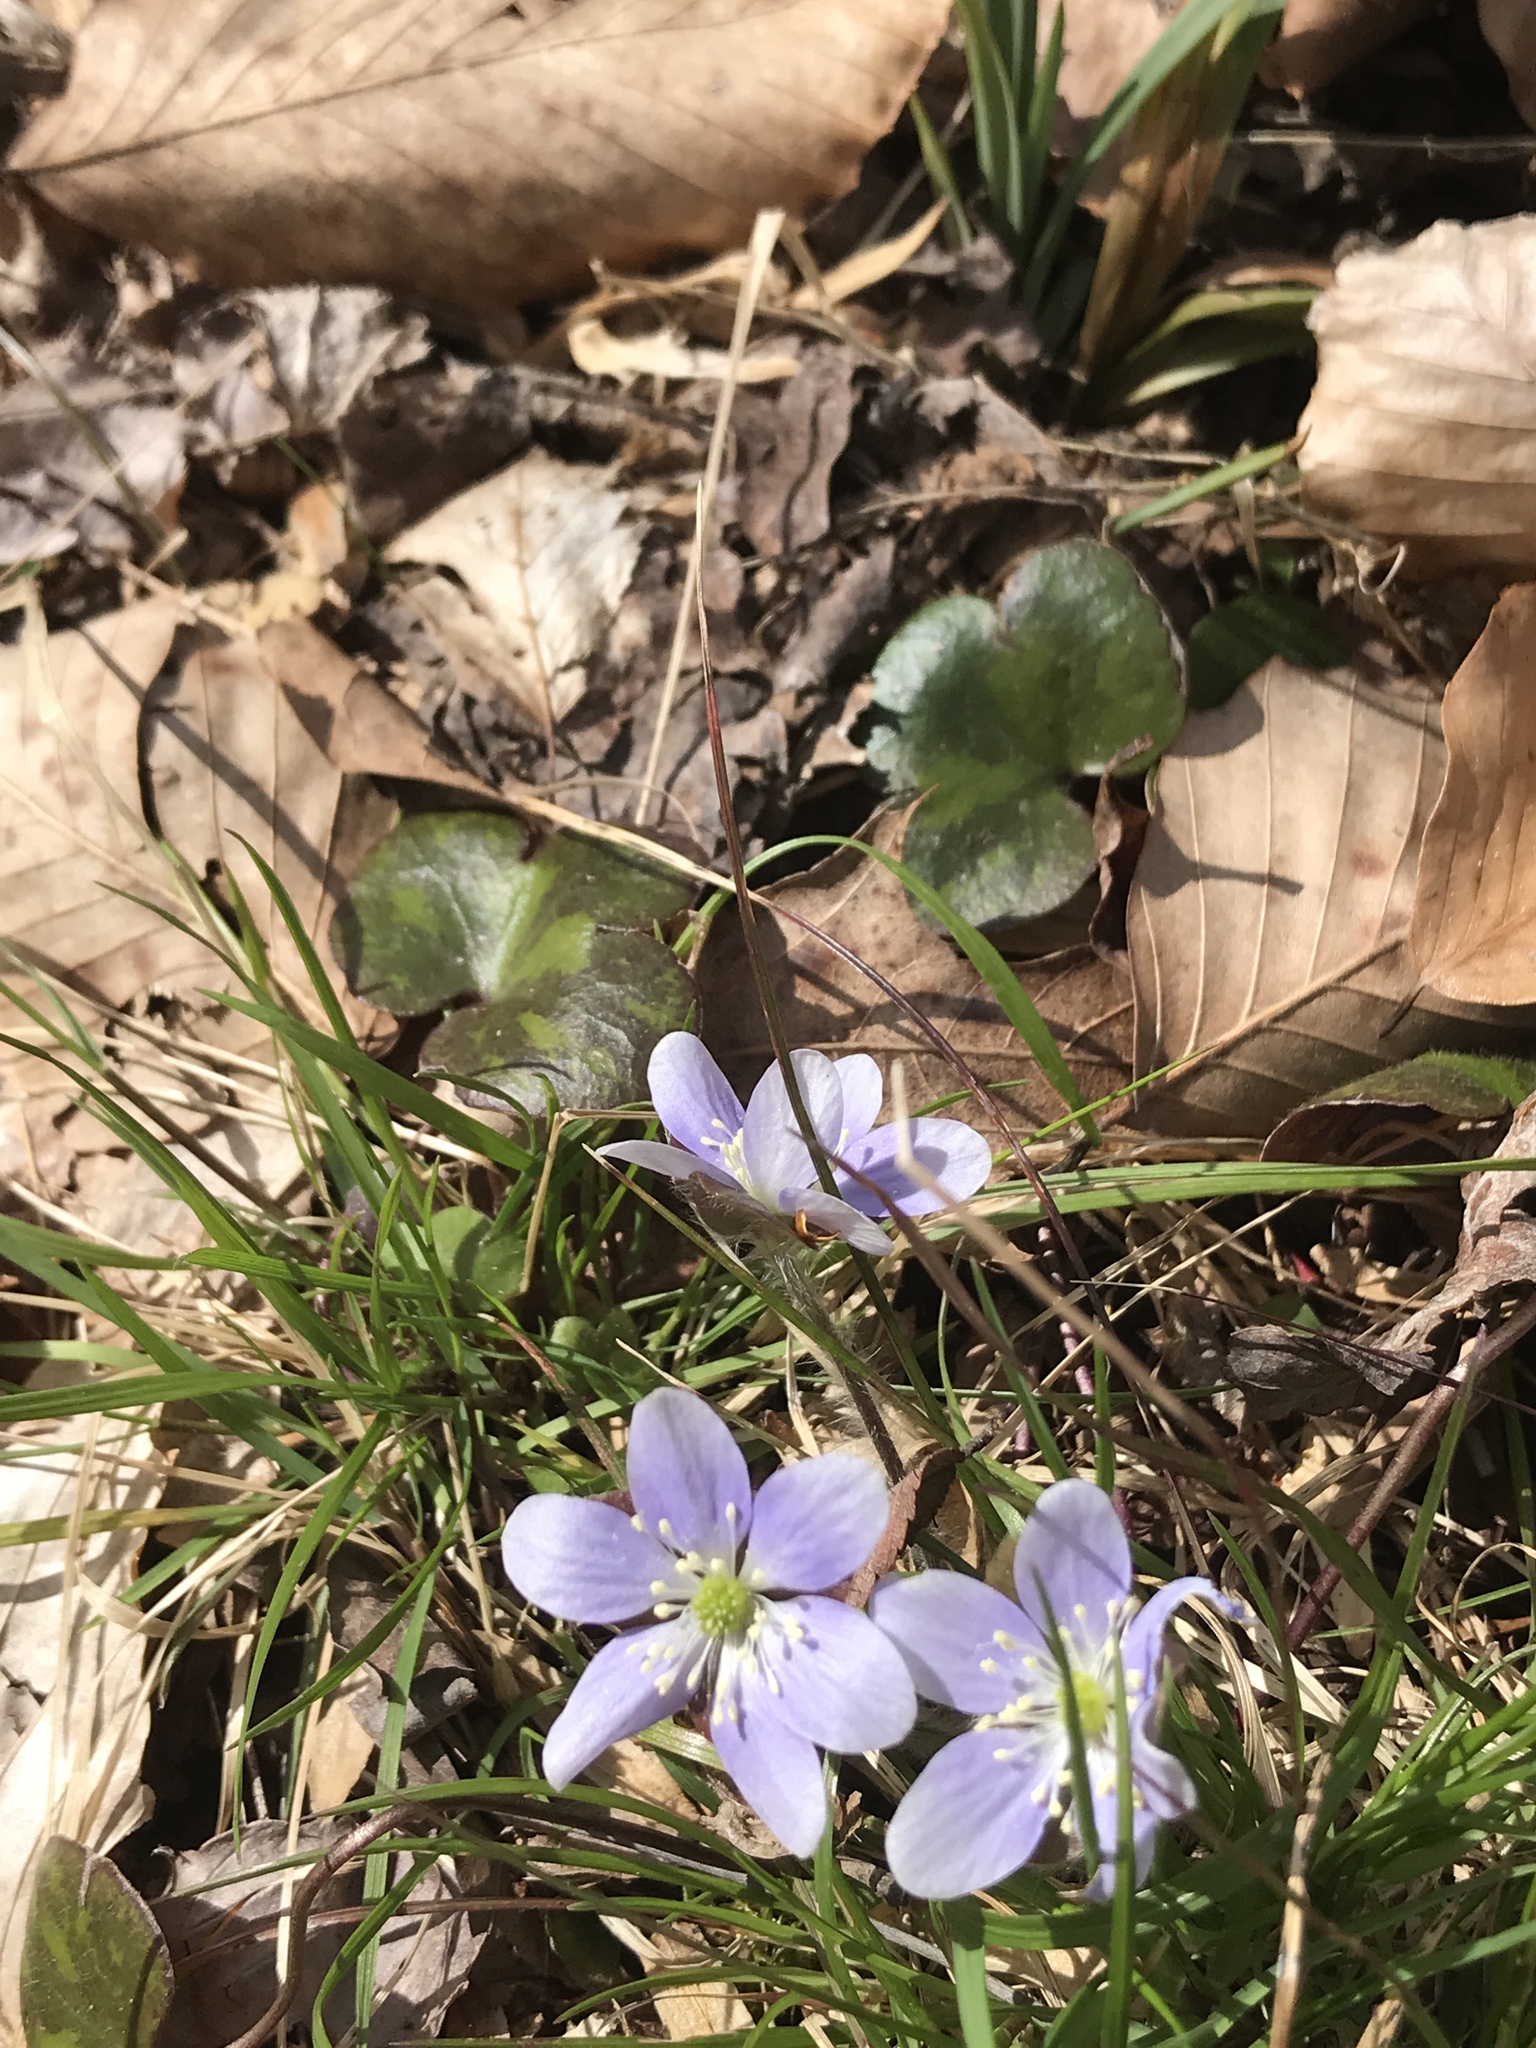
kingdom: Plantae
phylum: Tracheophyta
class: Magnoliopsida
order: Ranunculales
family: Ranunculaceae
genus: Hepatica
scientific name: Hepatica americana
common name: American hepatica
